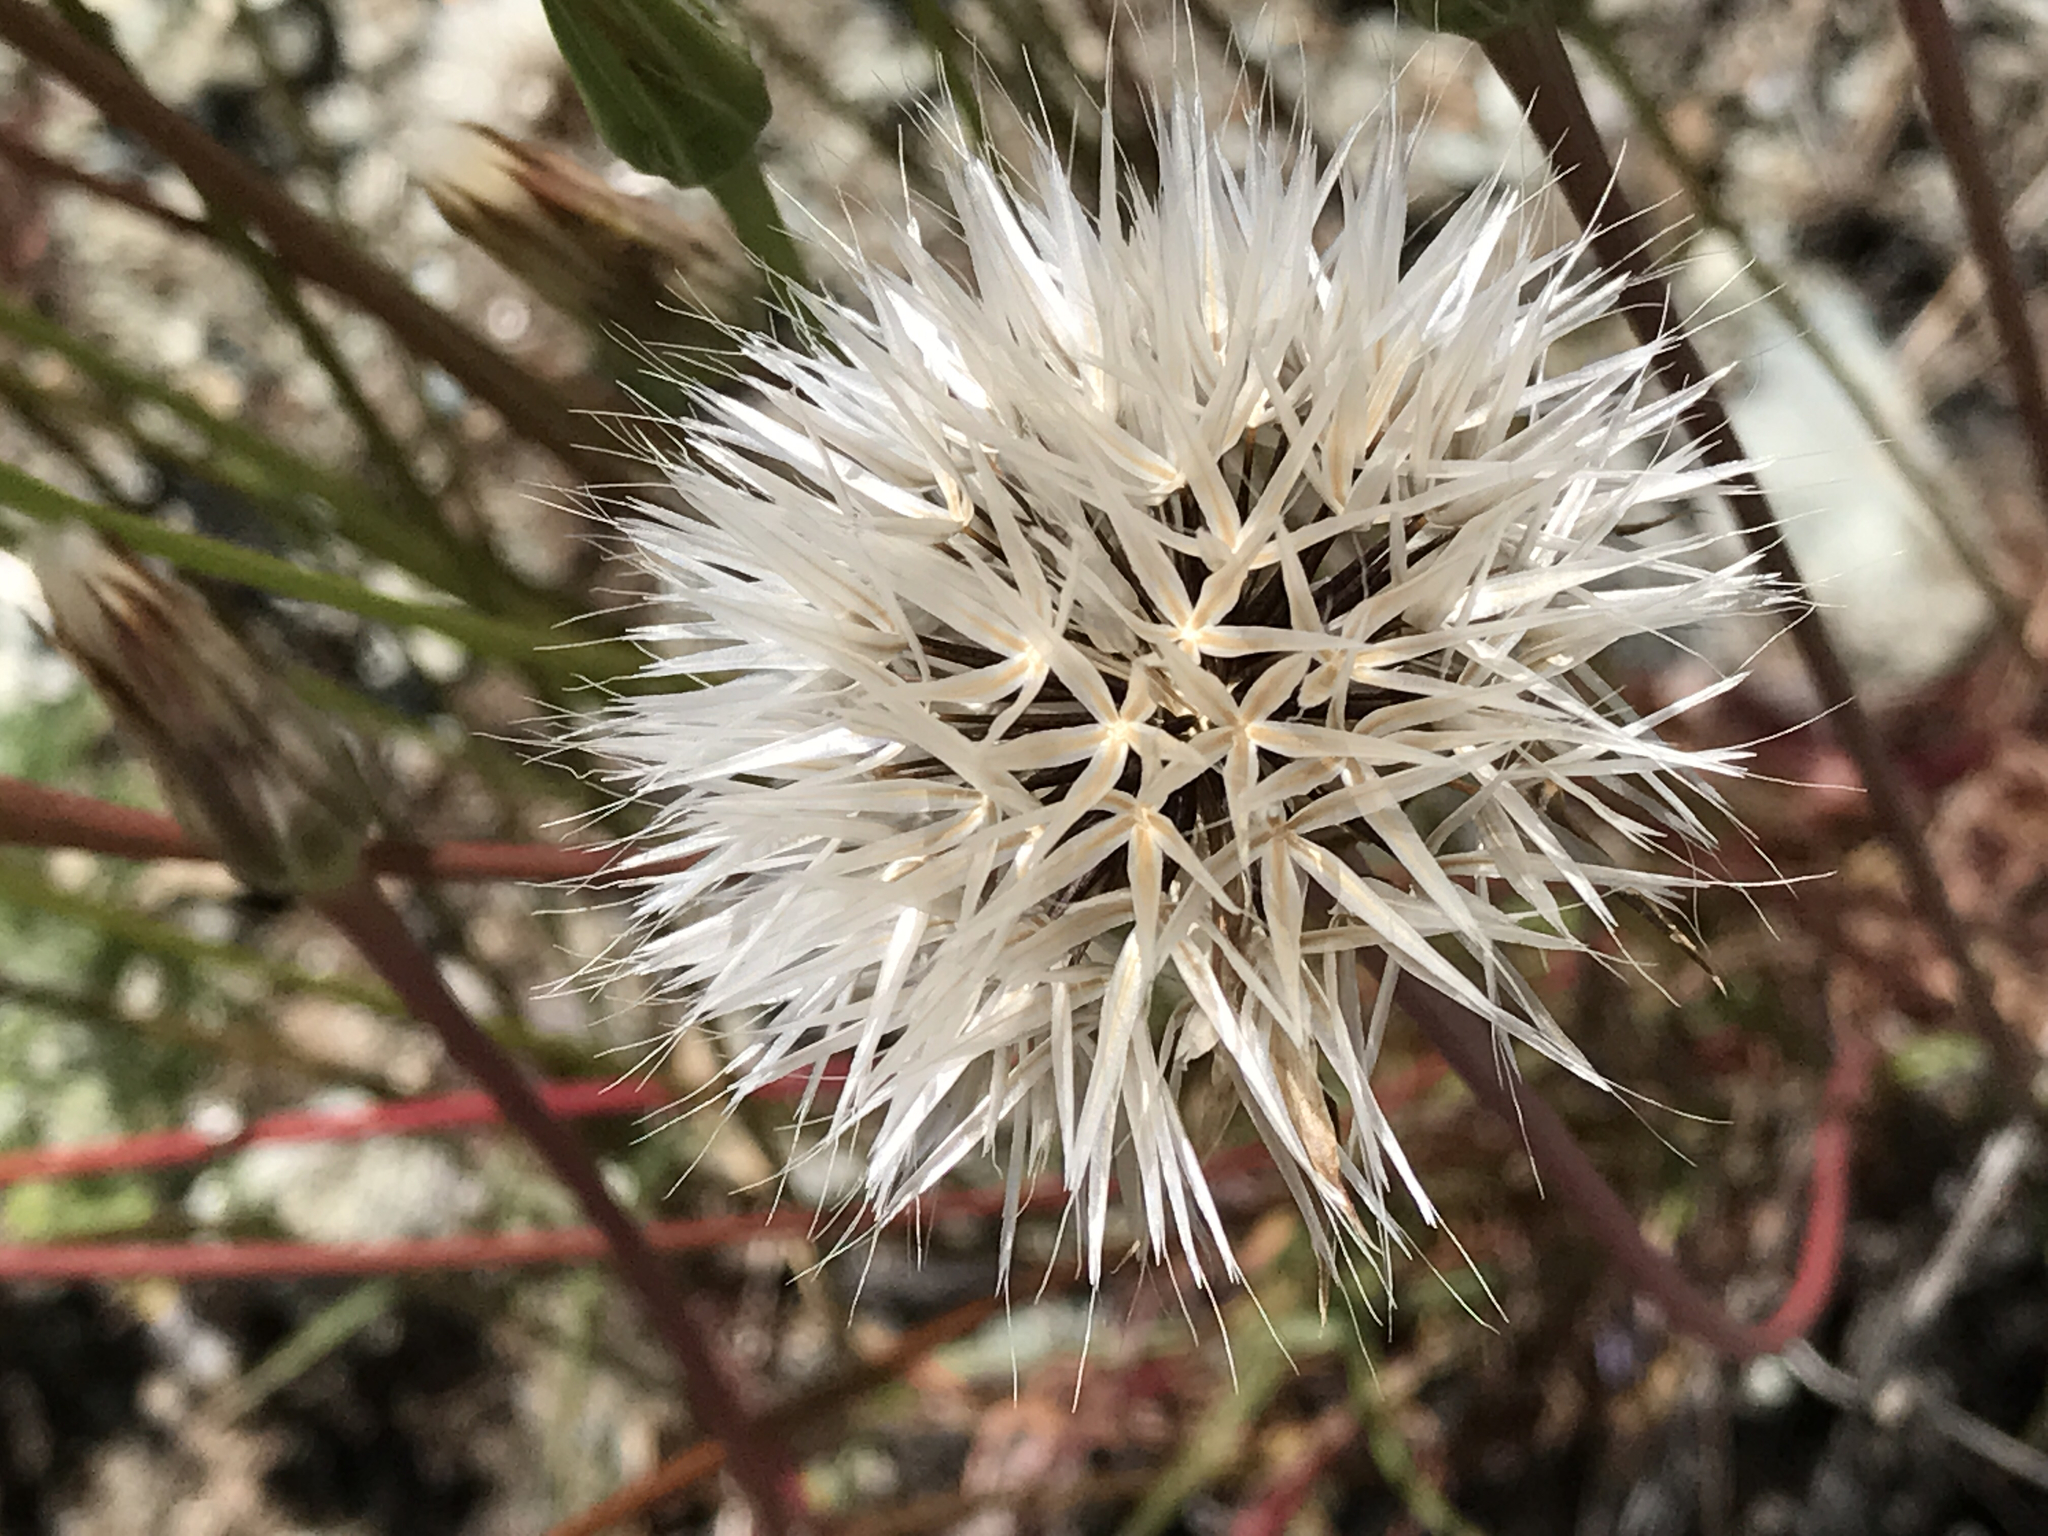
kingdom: Plantae
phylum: Tracheophyta
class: Magnoliopsida
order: Asterales
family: Asteraceae
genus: Microseris
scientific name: Microseris lindleyi
